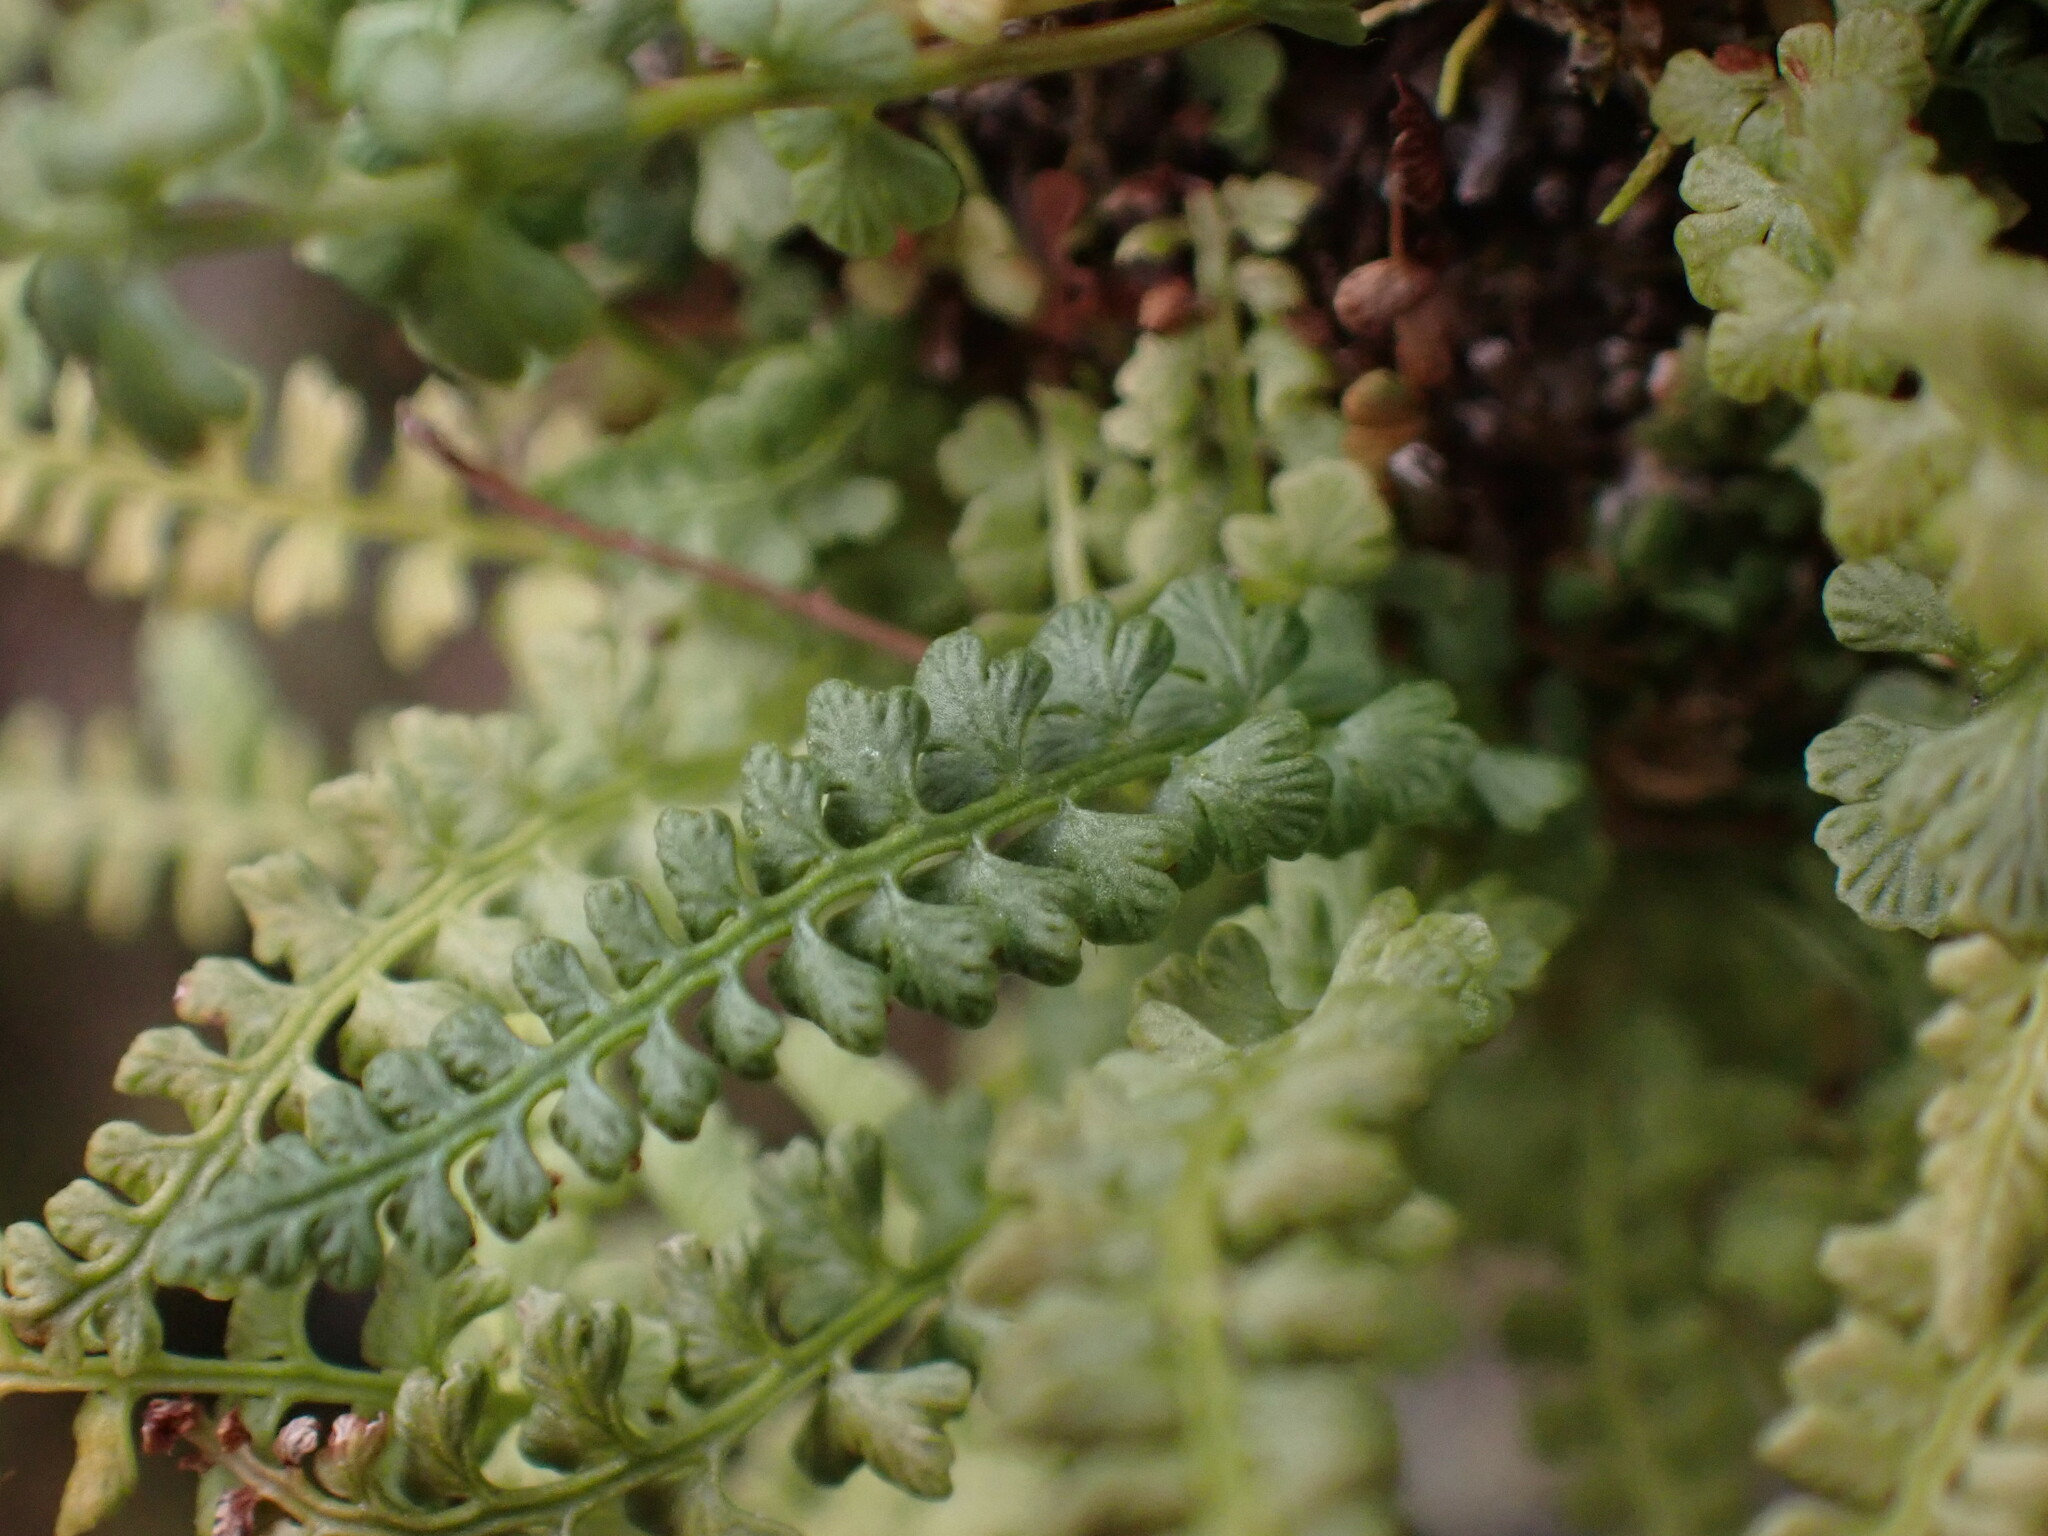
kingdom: Plantae
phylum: Tracheophyta
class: Polypodiopsida
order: Polypodiales
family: Woodsiaceae
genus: Woodsia
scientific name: Woodsia glabella
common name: Smooth woodsia
